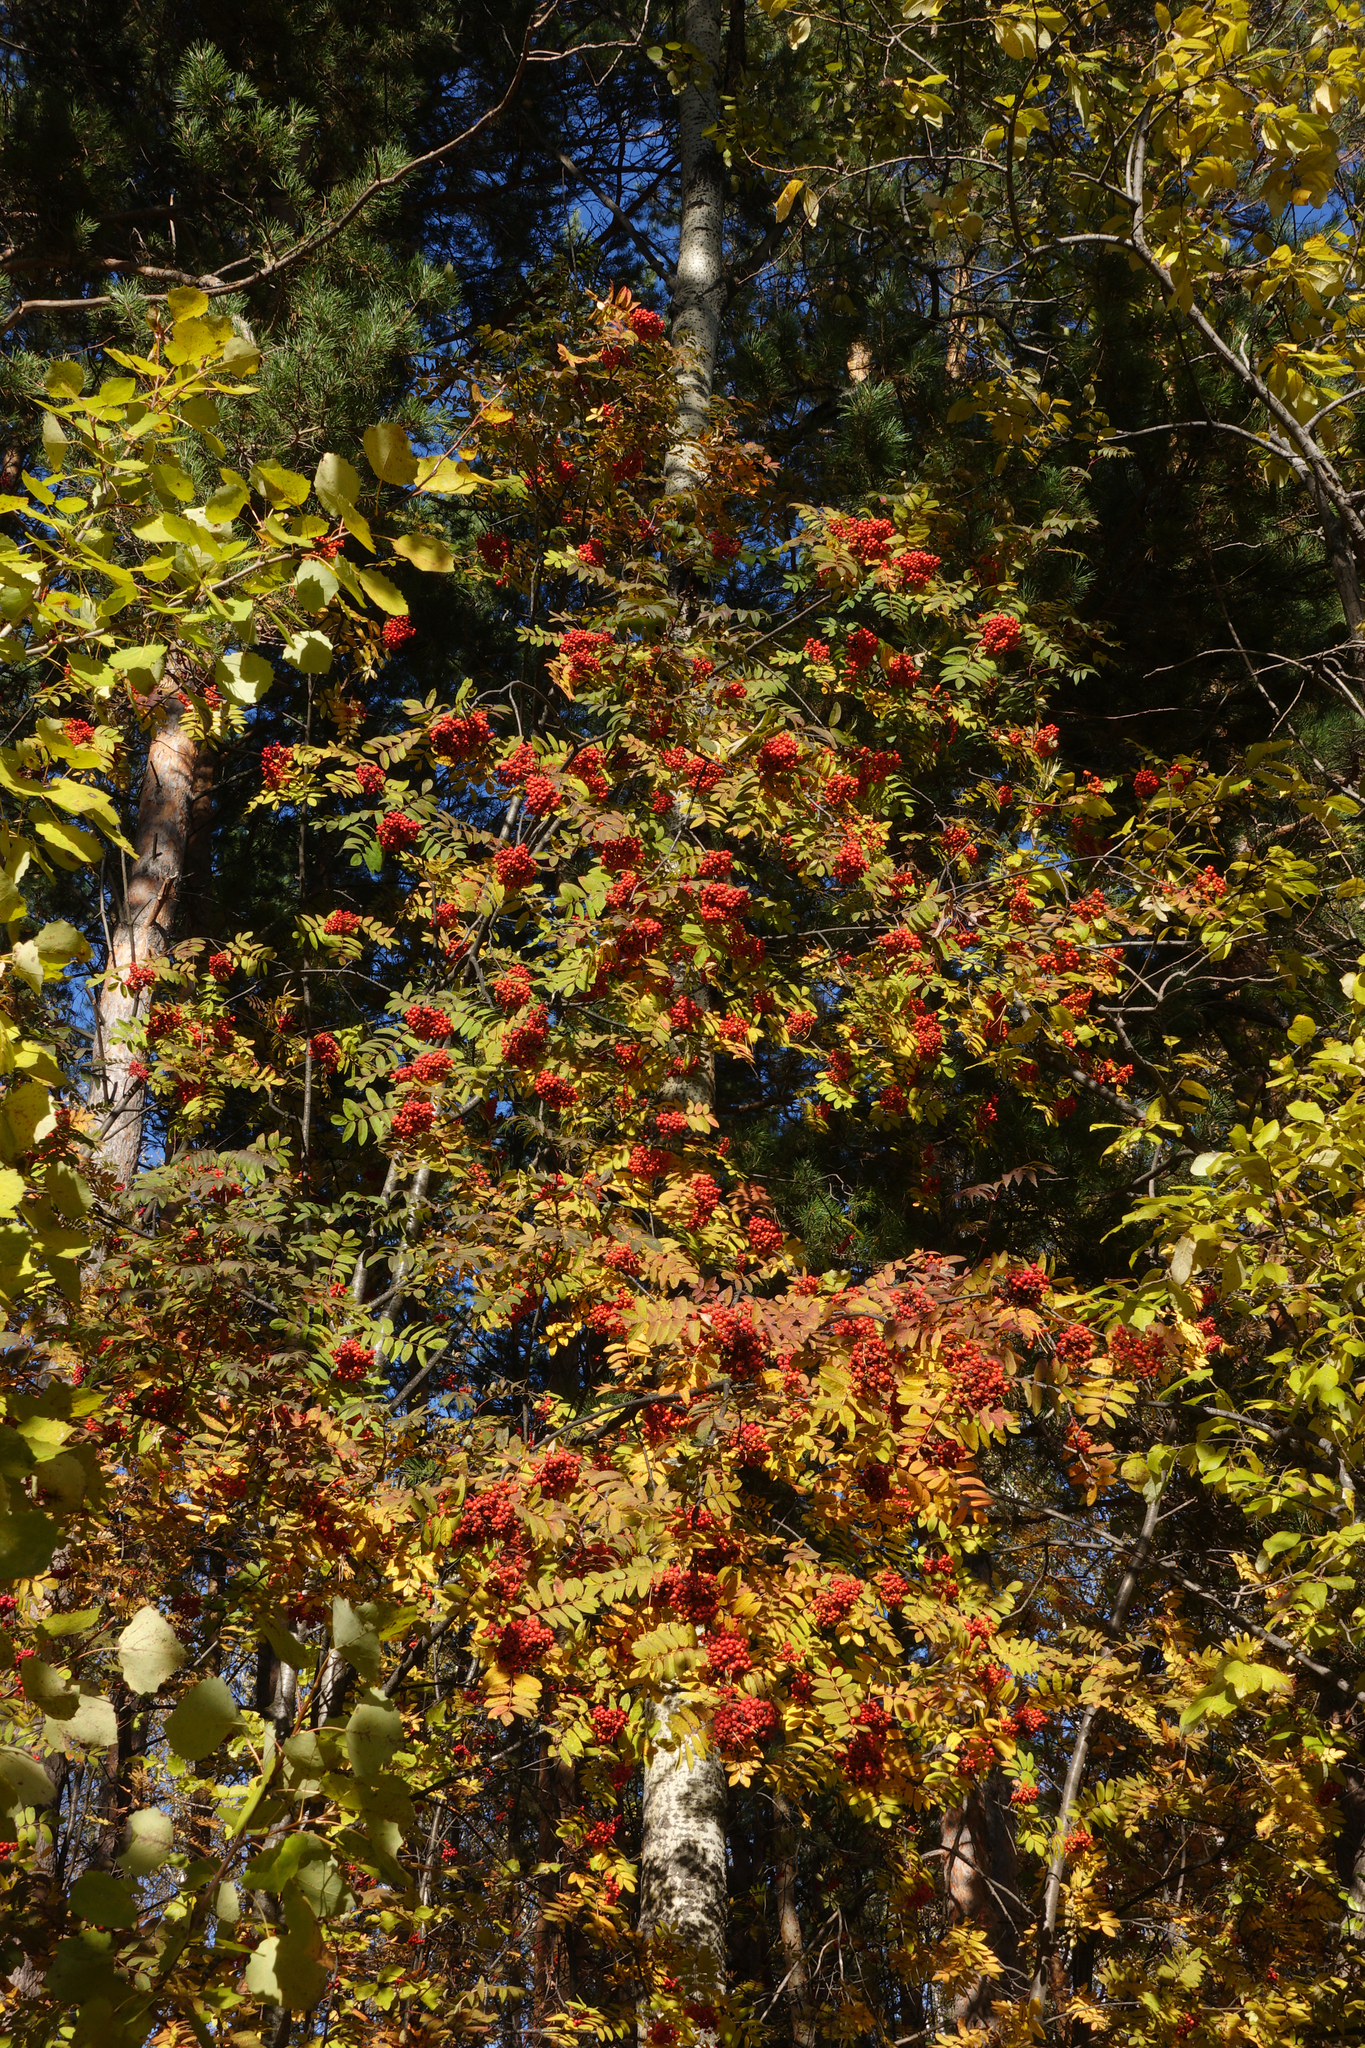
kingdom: Plantae
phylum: Tracheophyta
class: Magnoliopsida
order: Rosales
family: Rosaceae
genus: Sorbus
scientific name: Sorbus aucuparia
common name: Rowan
